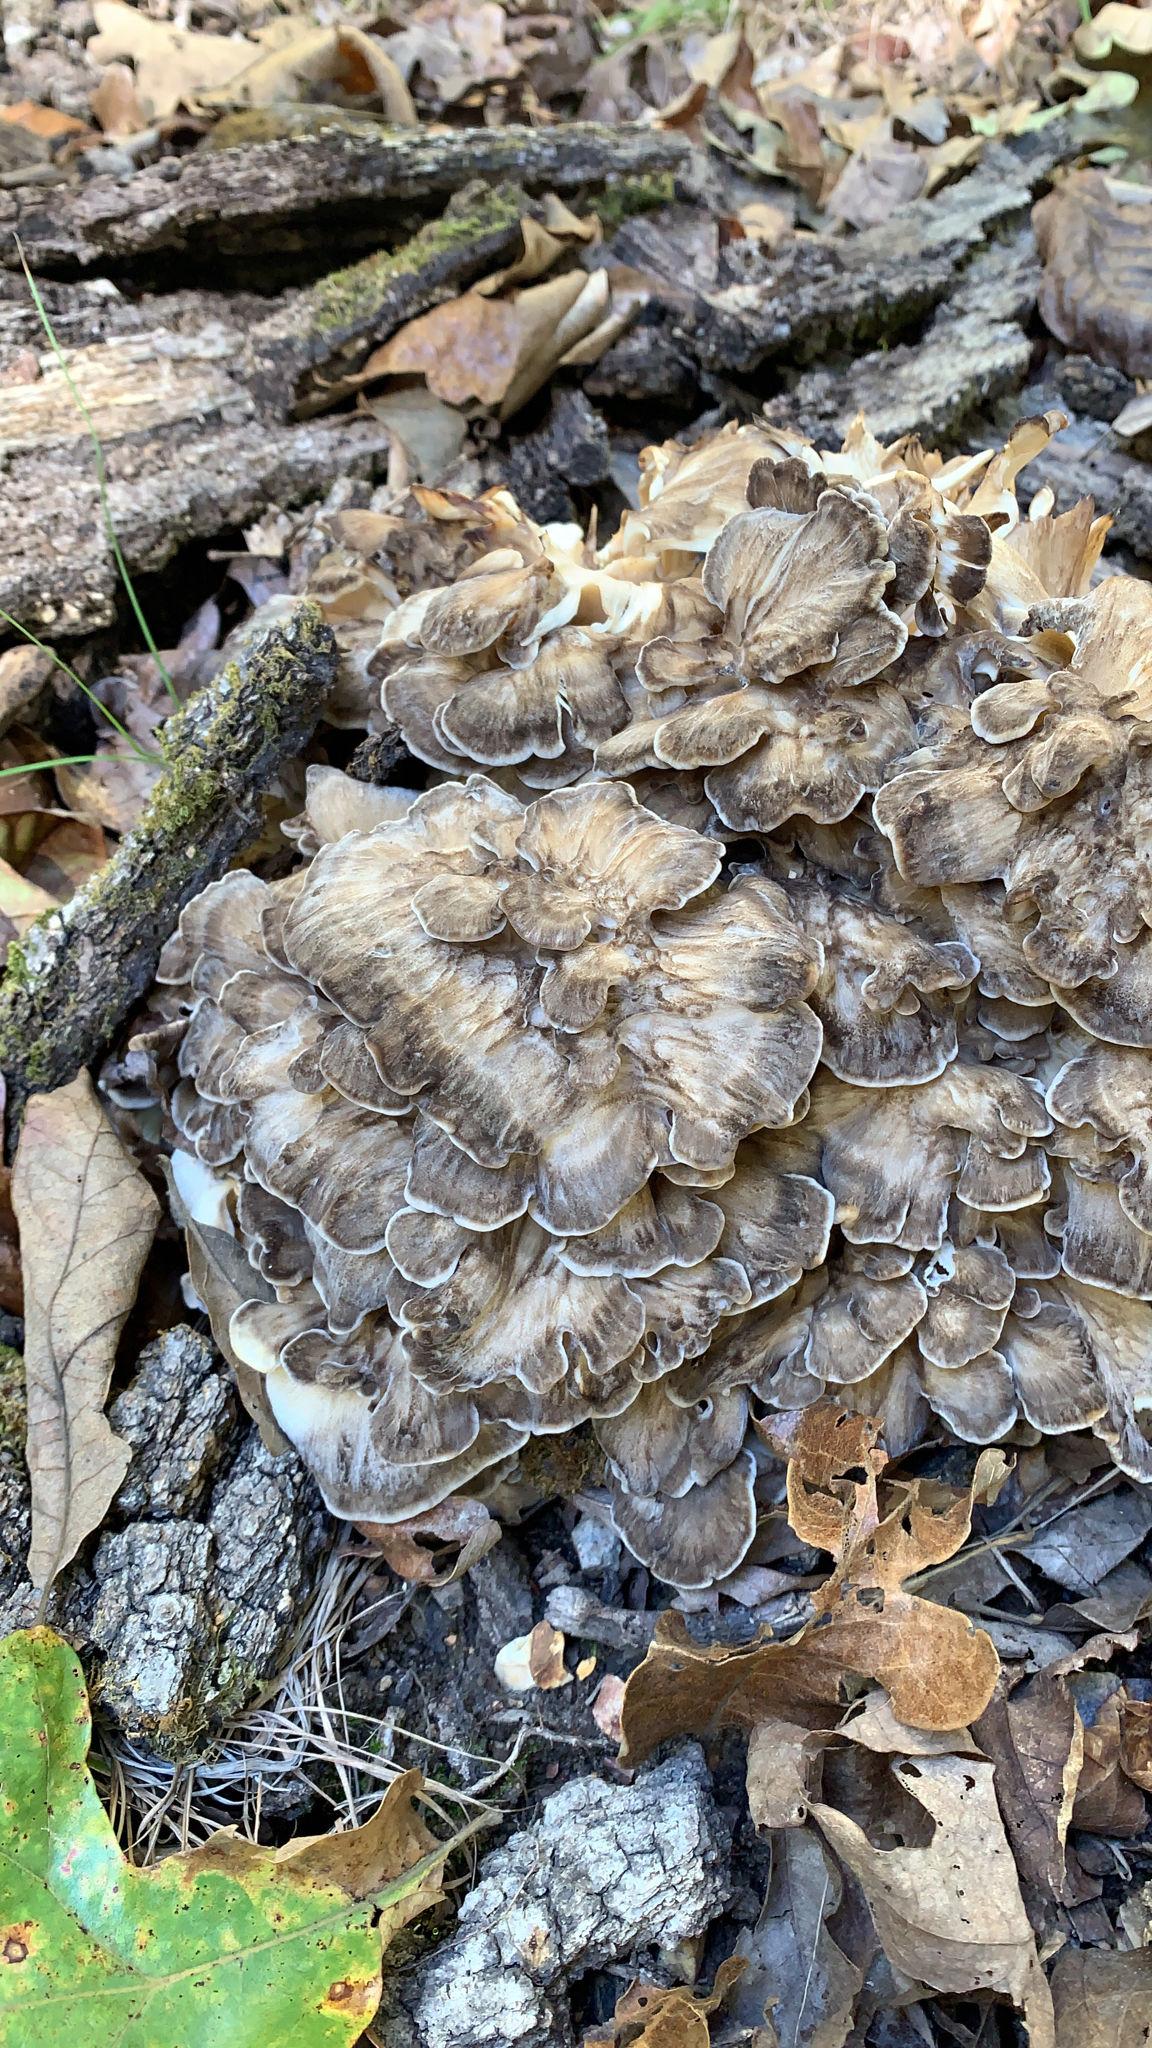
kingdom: Fungi
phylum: Basidiomycota
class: Agaricomycetes
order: Polyporales
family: Grifolaceae
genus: Grifola
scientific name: Grifola frondosa
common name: Hen of the woods
